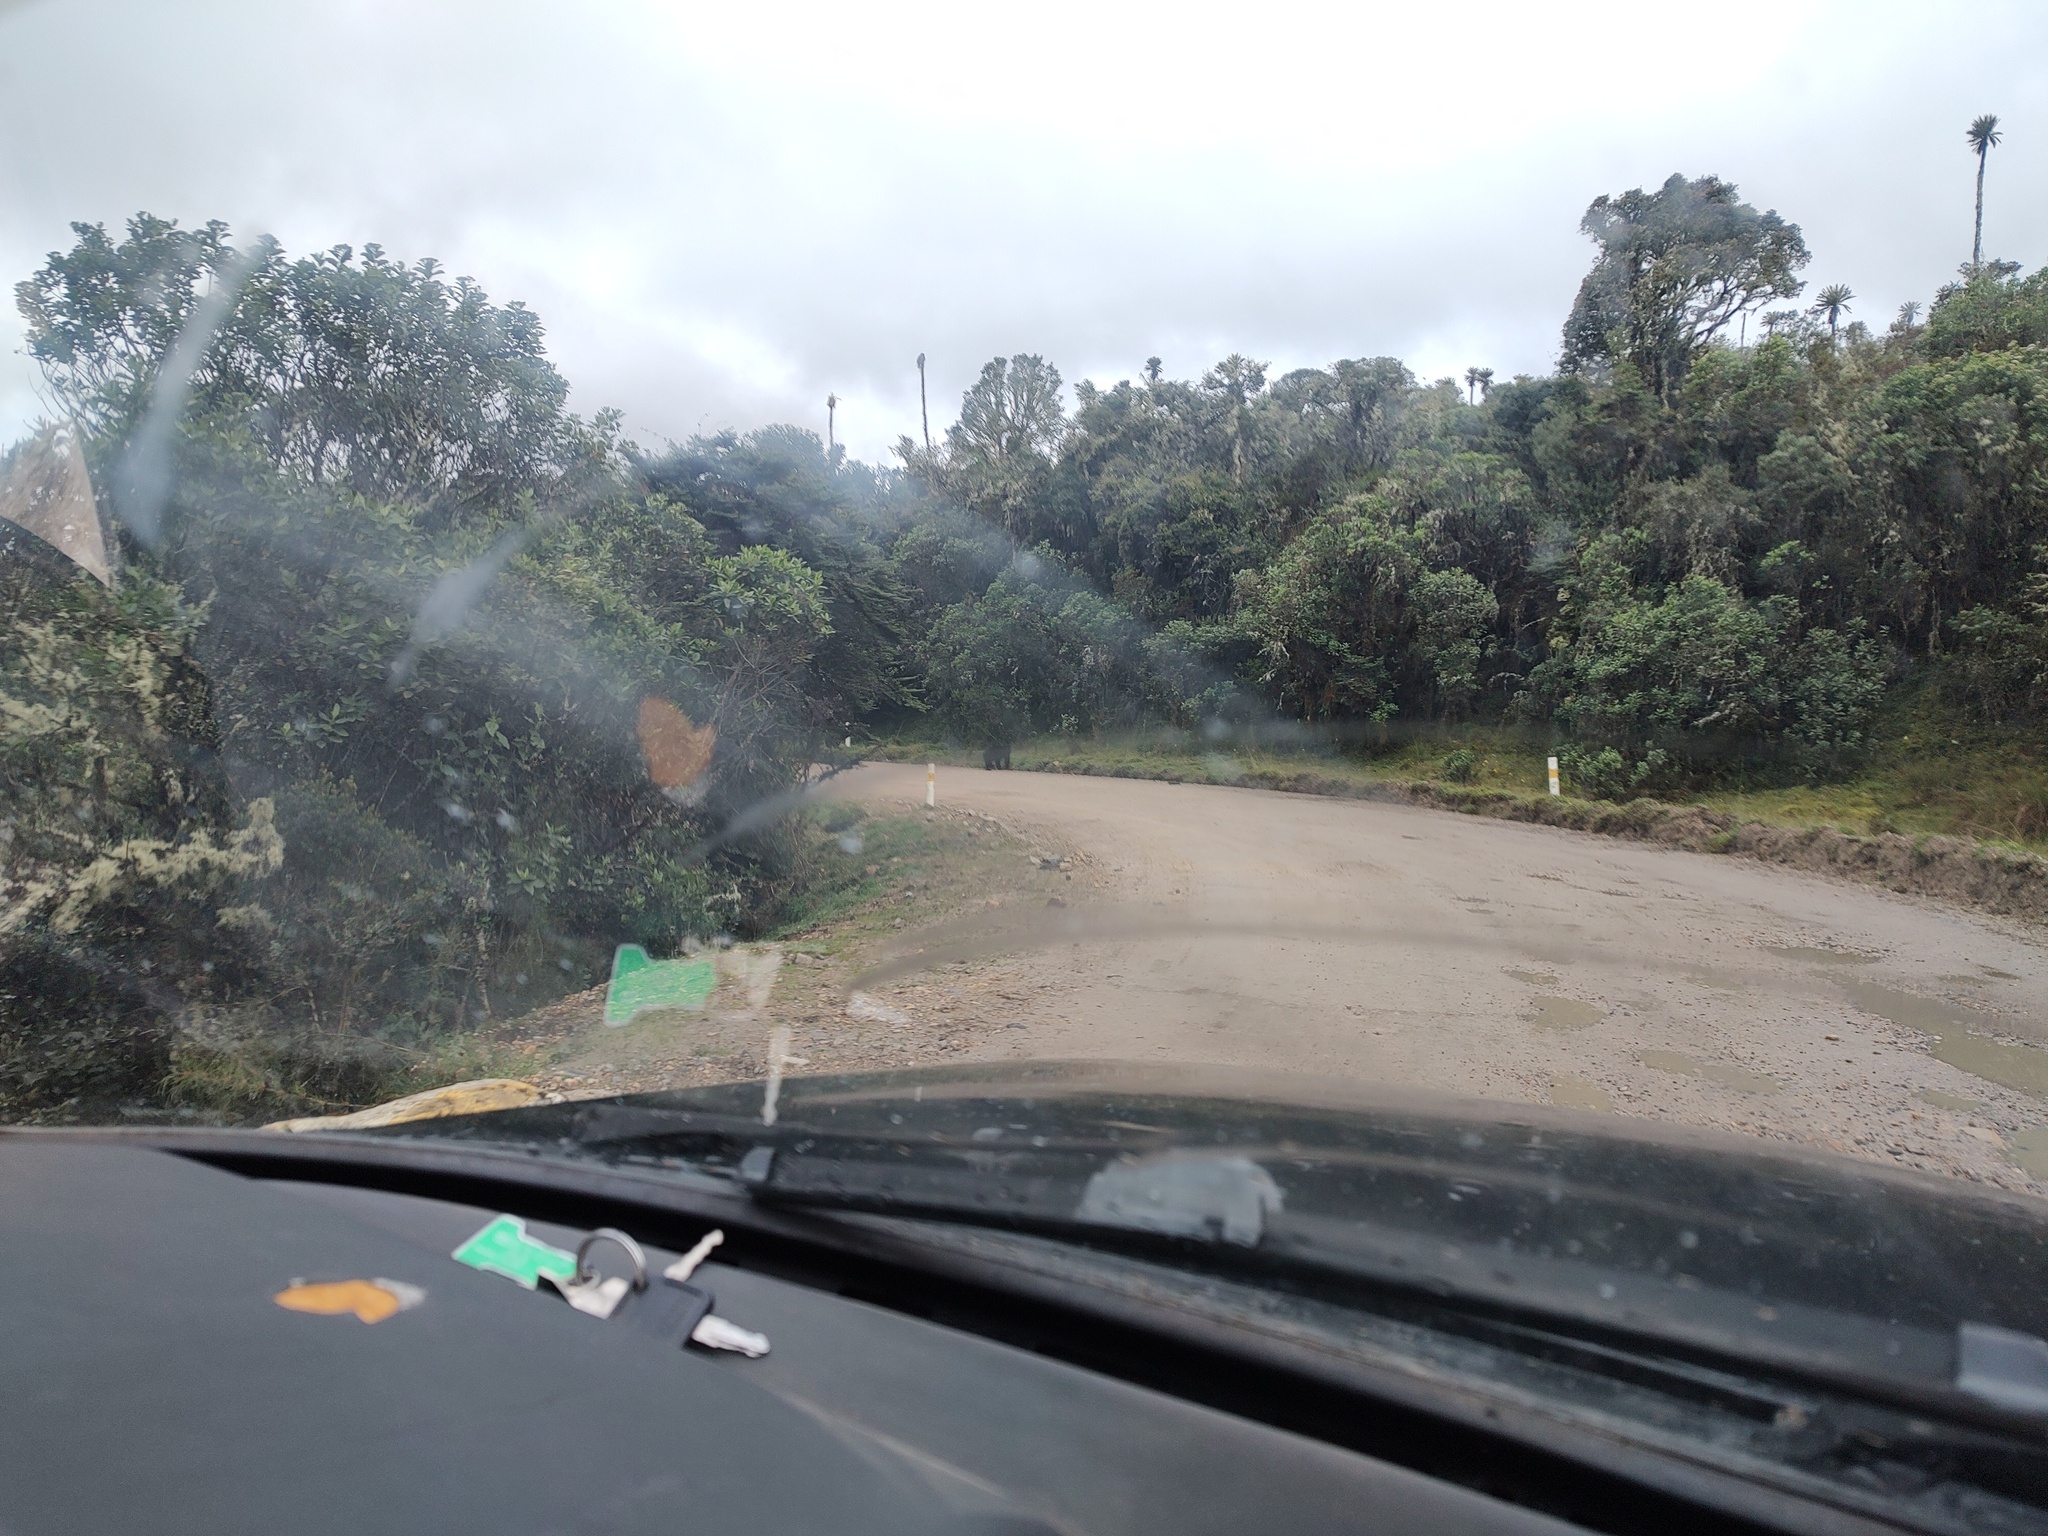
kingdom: Animalia
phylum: Chordata
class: Mammalia
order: Carnivora
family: Ursidae
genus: Tremarctos
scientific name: Tremarctos ornatus
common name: Spectacled bear
